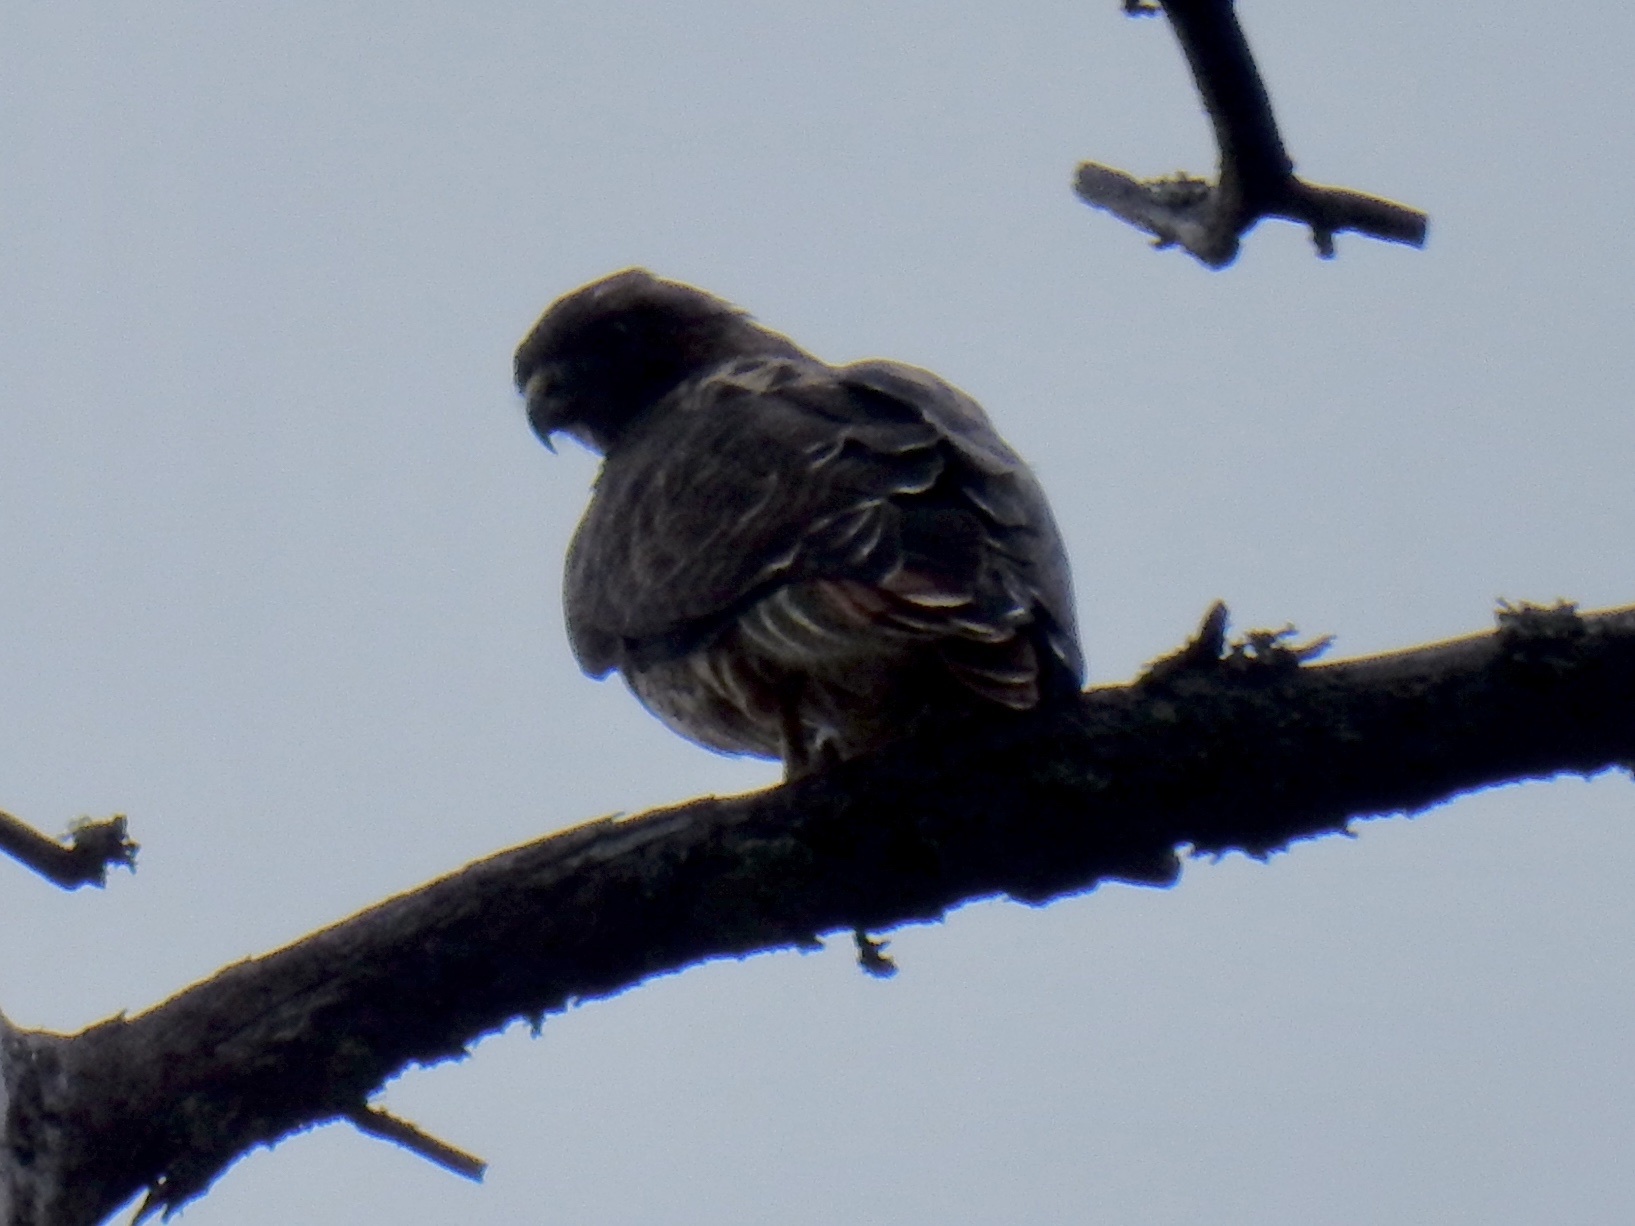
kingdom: Animalia
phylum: Chordata
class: Aves
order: Accipitriformes
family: Accipitridae
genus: Buteo
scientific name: Buteo jamaicensis
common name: Red-tailed hawk
